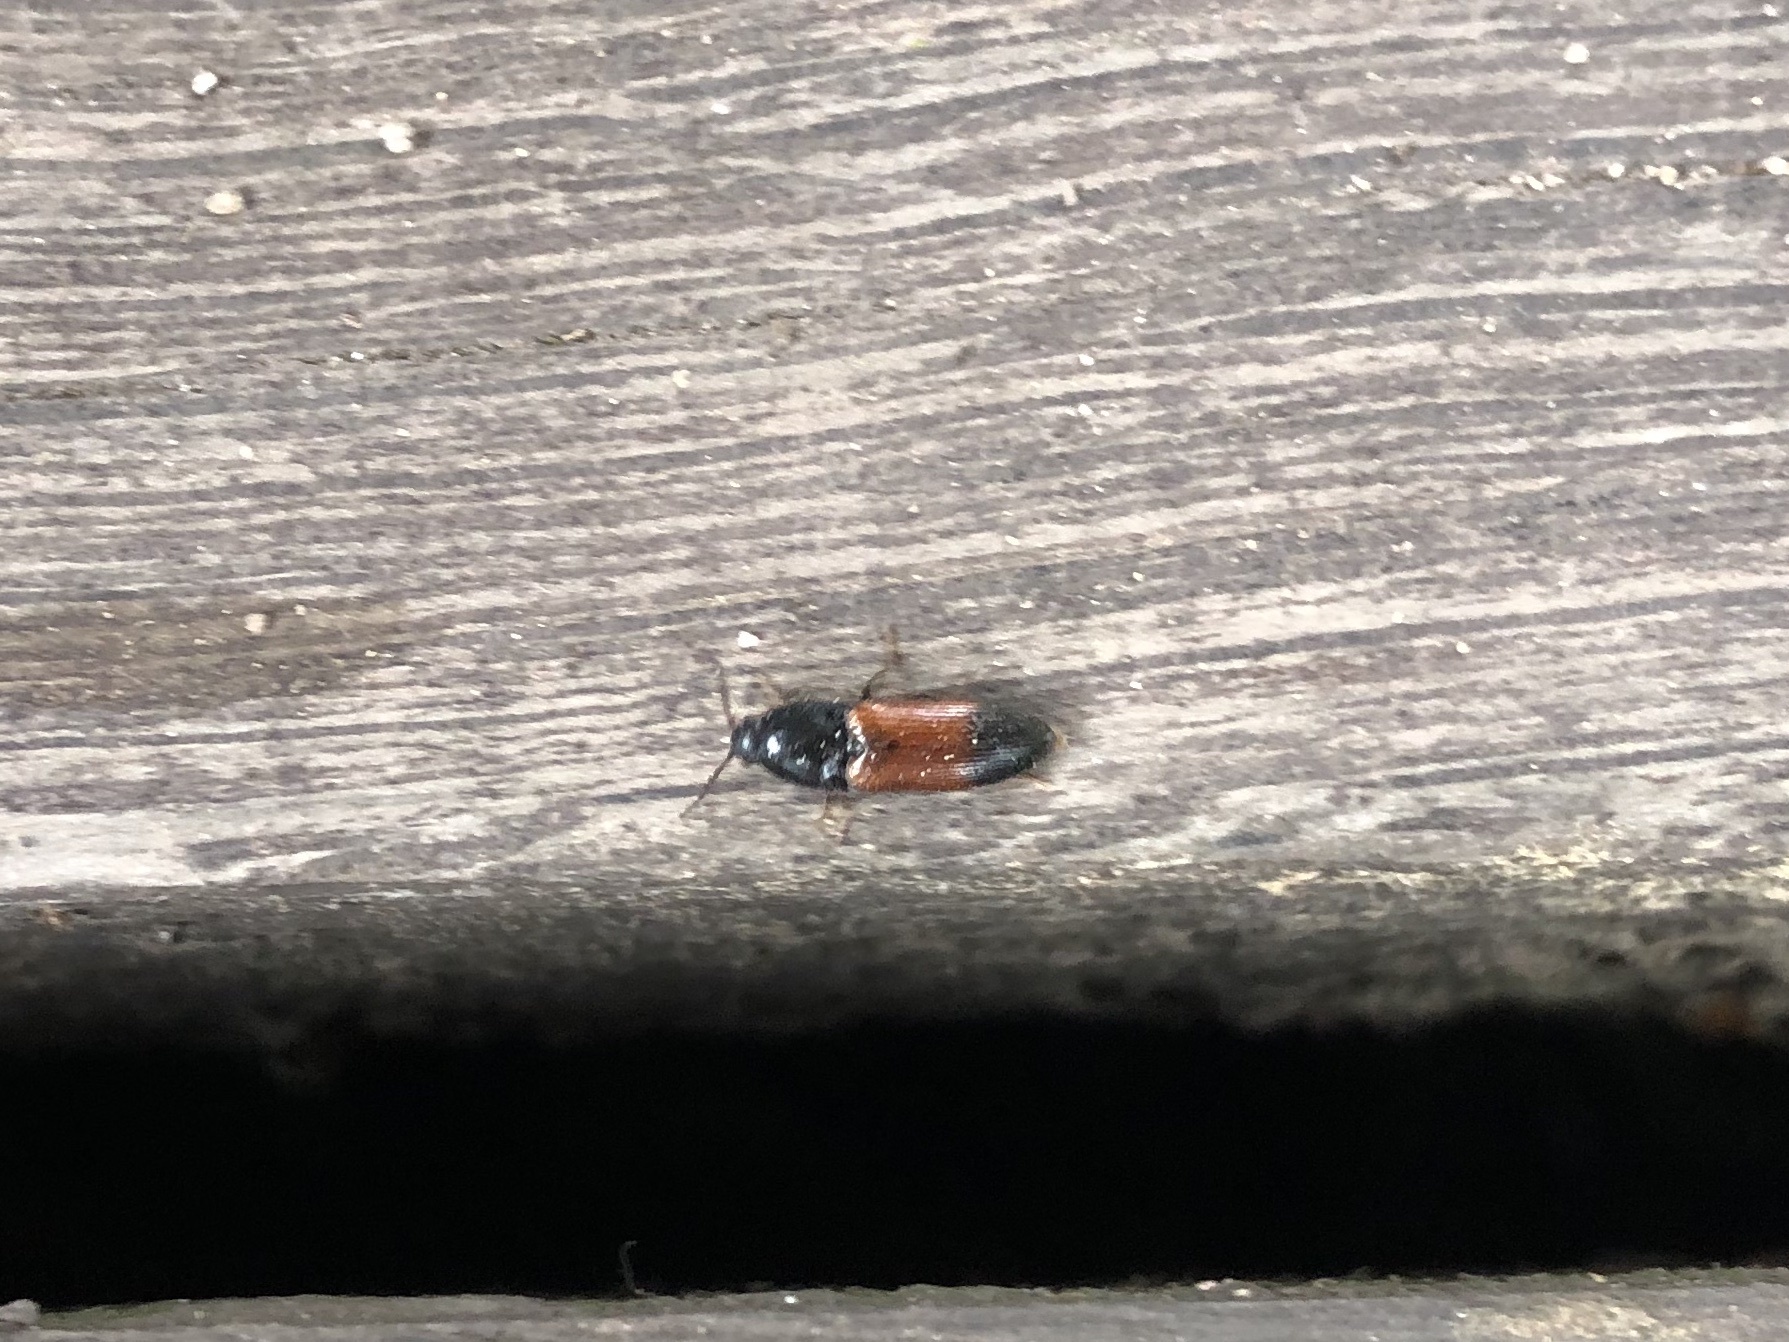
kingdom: Animalia
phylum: Arthropoda
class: Insecta
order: Coleoptera
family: Elateridae
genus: Ampedus
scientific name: Ampedus balteatus
